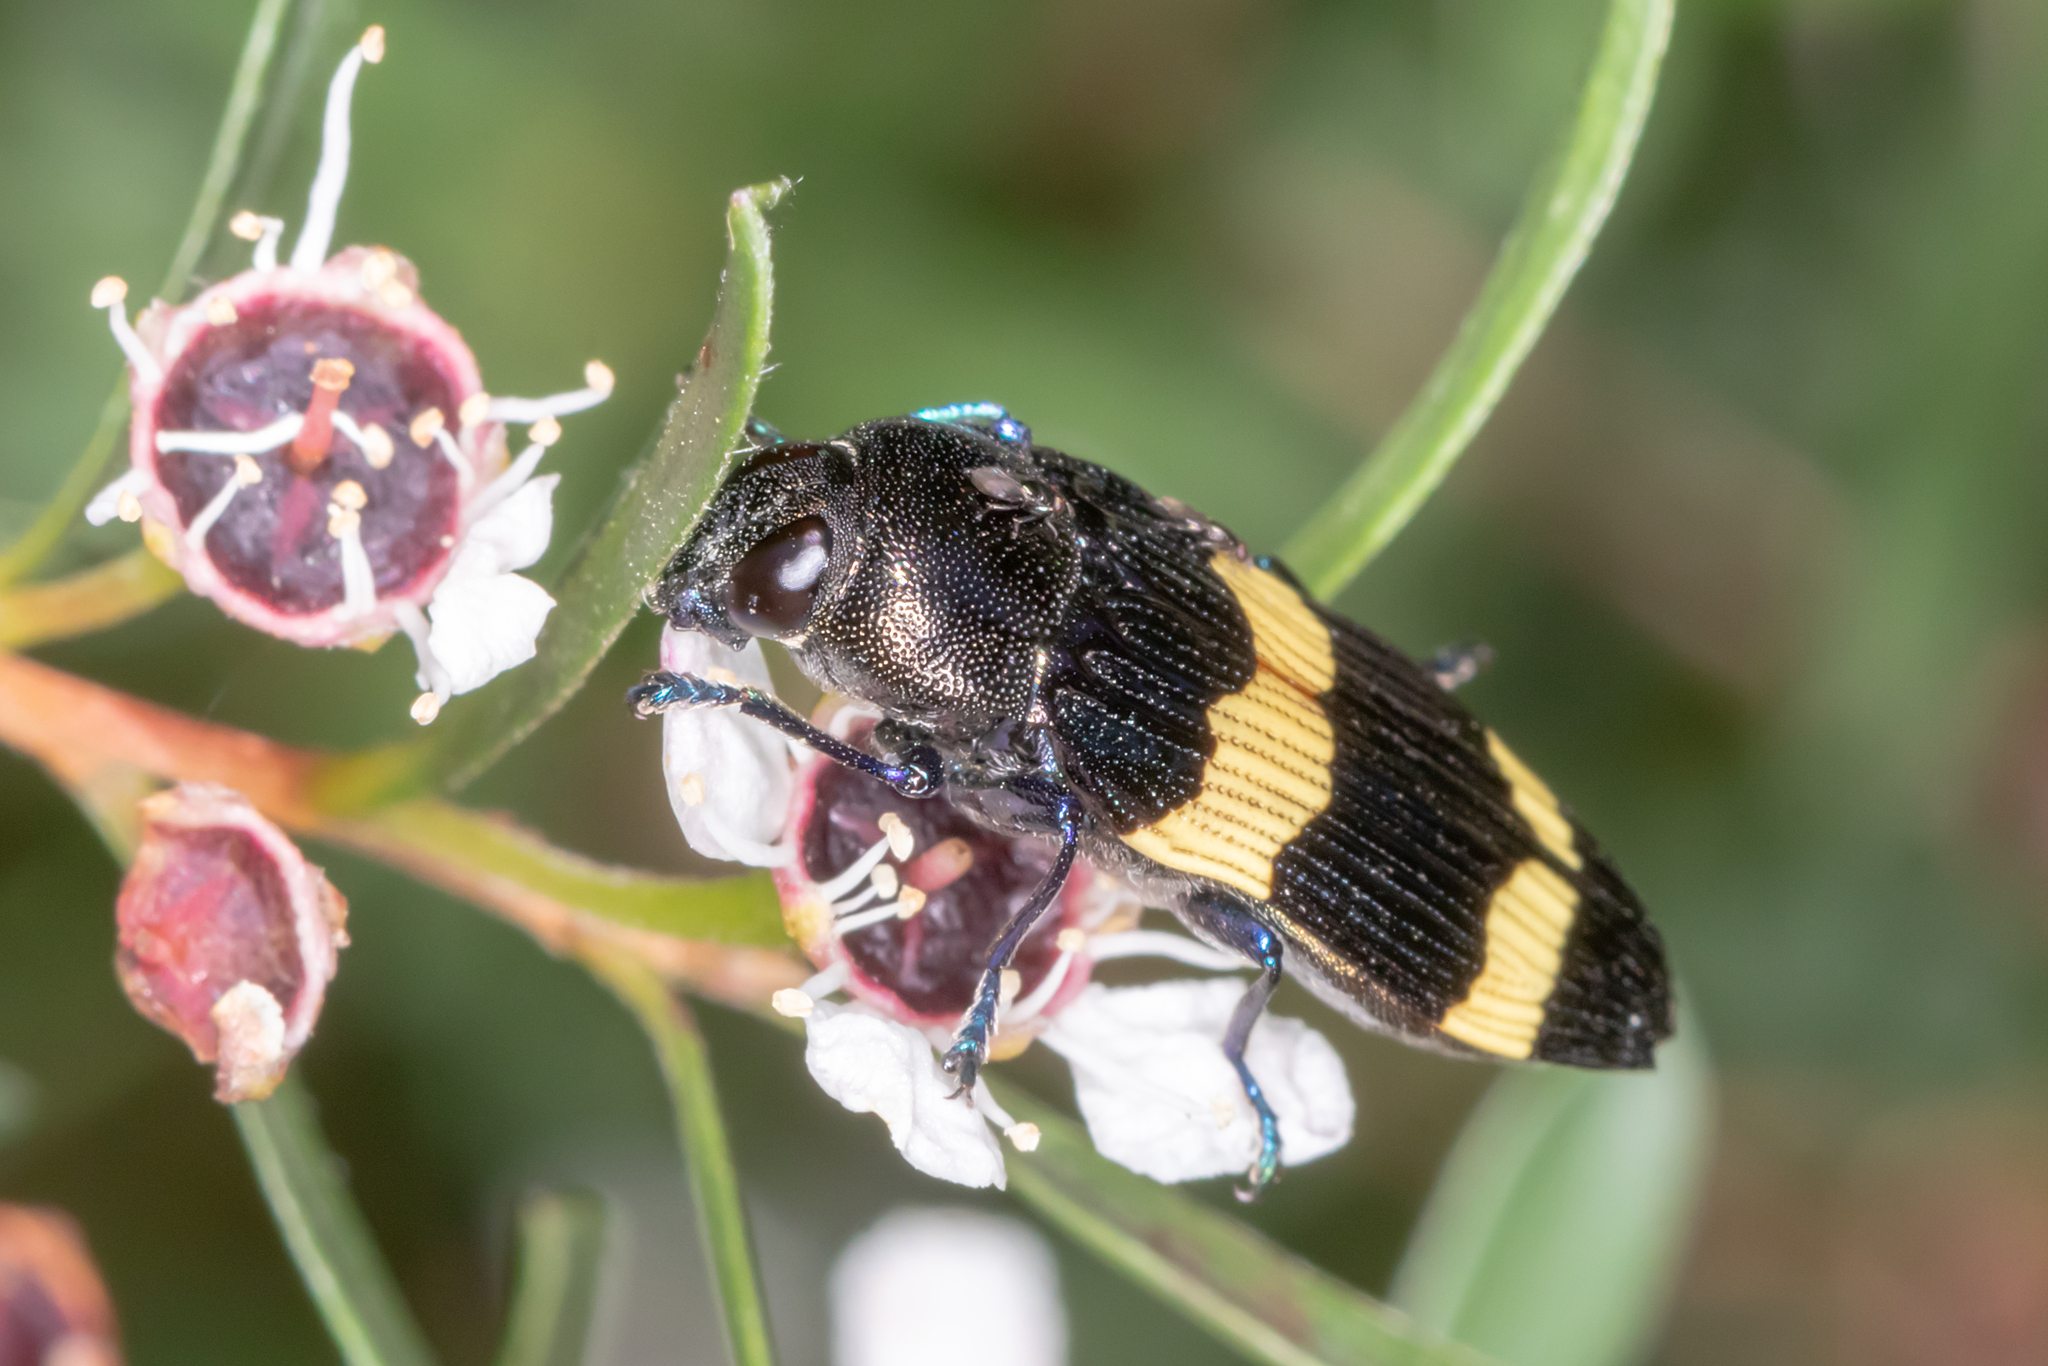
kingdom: Animalia
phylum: Arthropoda
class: Insecta
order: Coleoptera
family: Buprestidae
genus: Castiarina
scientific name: Castiarina bifasciata
